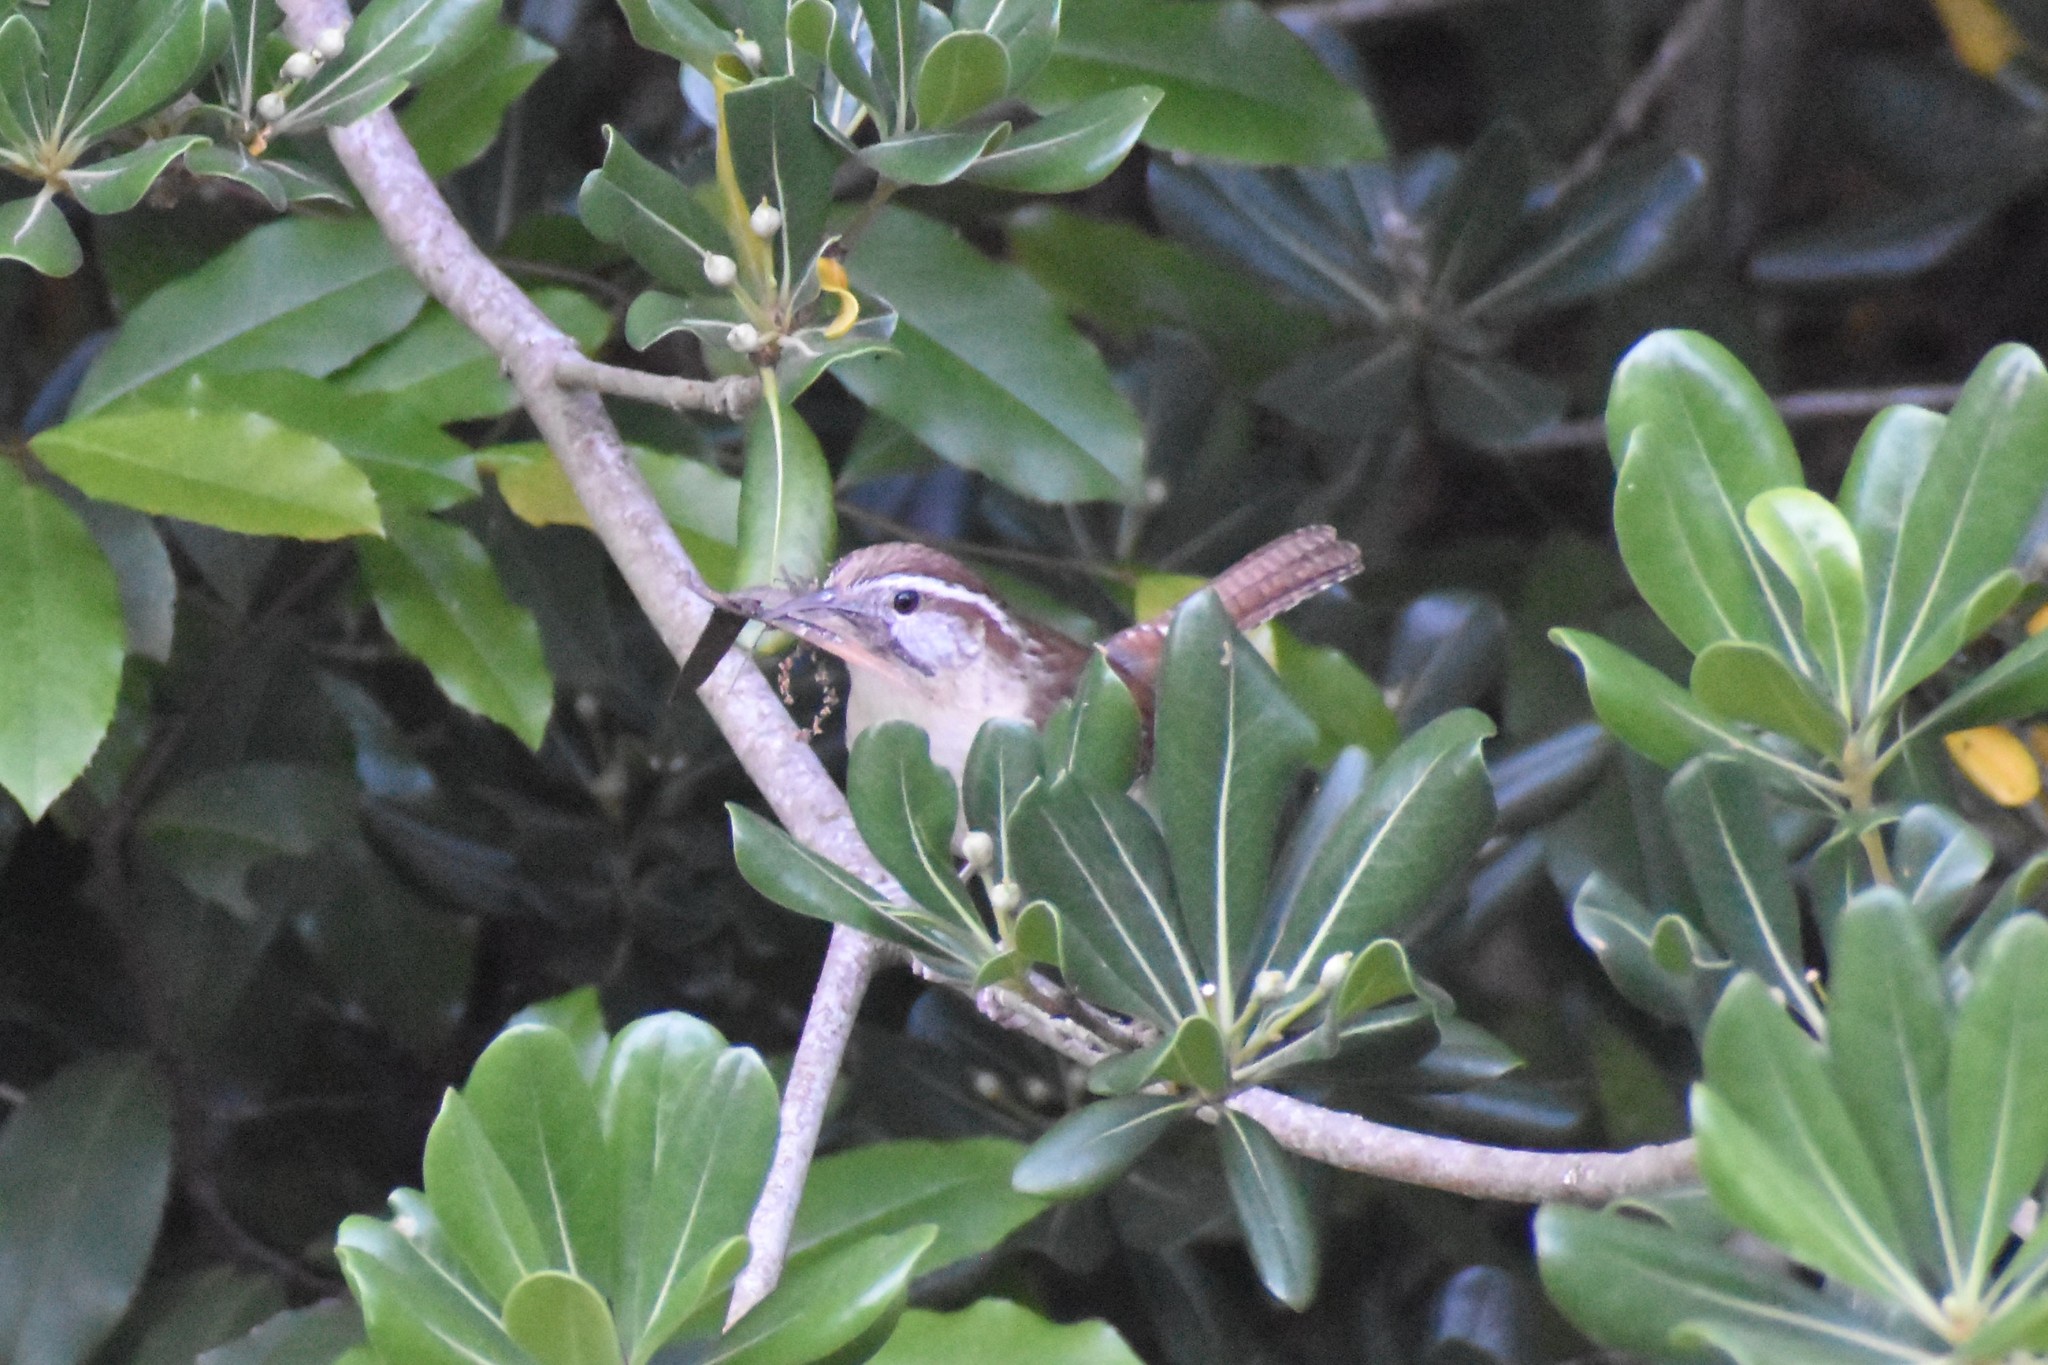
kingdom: Animalia
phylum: Chordata
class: Aves
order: Passeriformes
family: Troglodytidae
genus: Thryothorus
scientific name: Thryothorus ludovicianus
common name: Carolina wren
